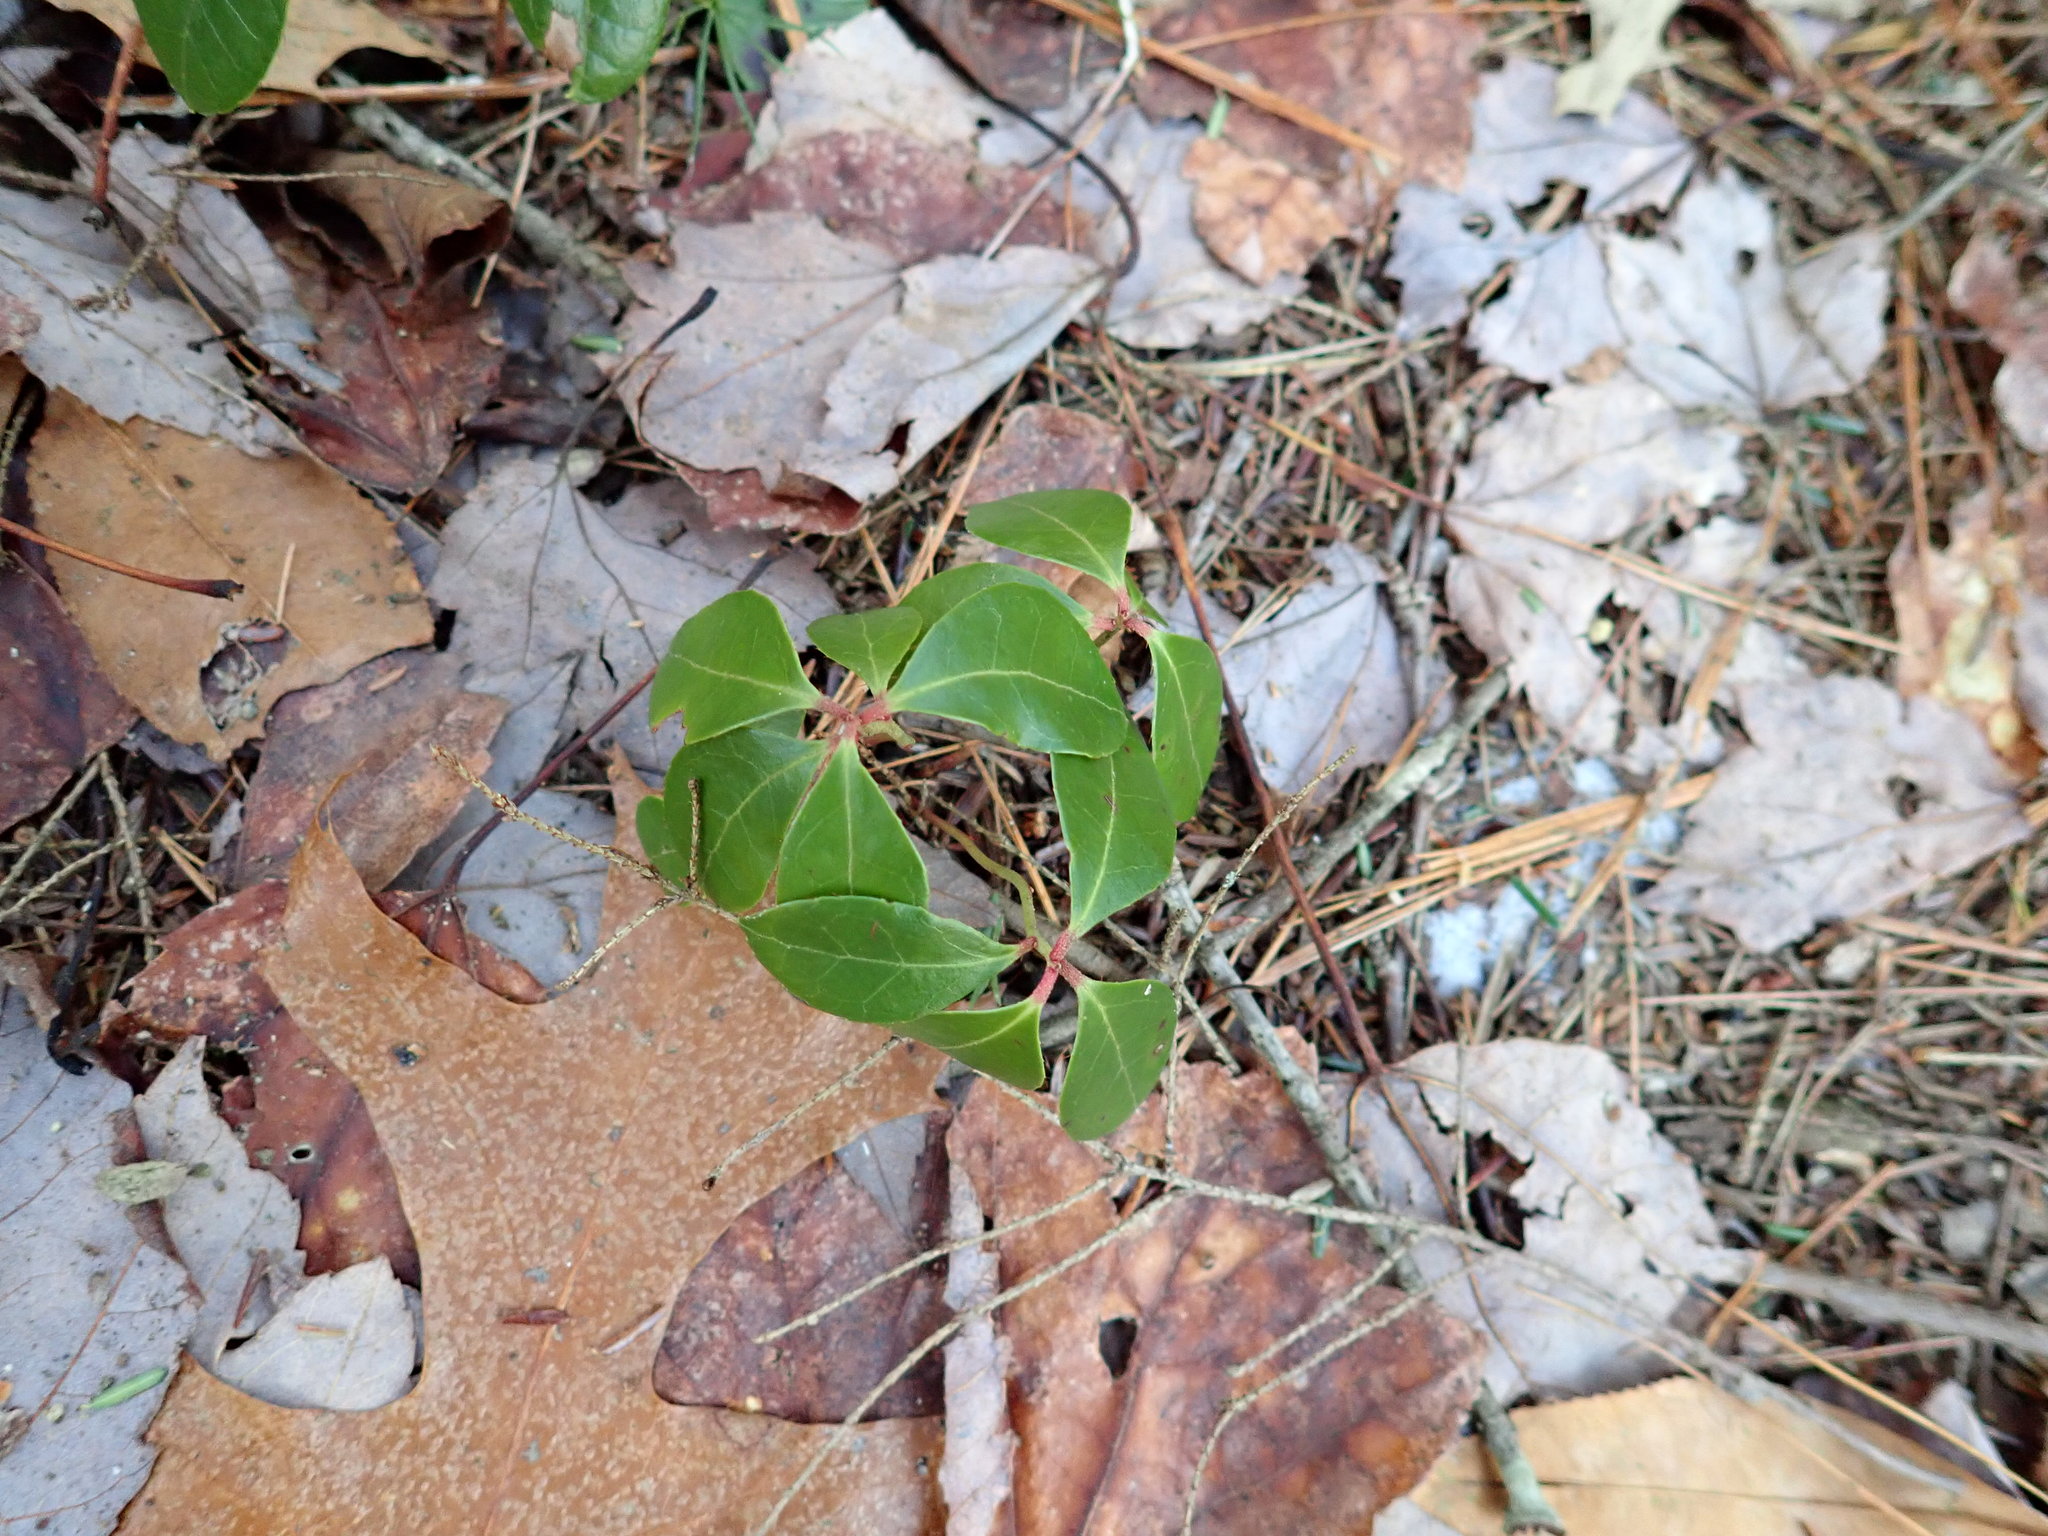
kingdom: Plantae
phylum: Tracheophyta
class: Magnoliopsida
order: Ericales
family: Ericaceae
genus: Gaultheria
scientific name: Gaultheria procumbens
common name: Checkerberry
